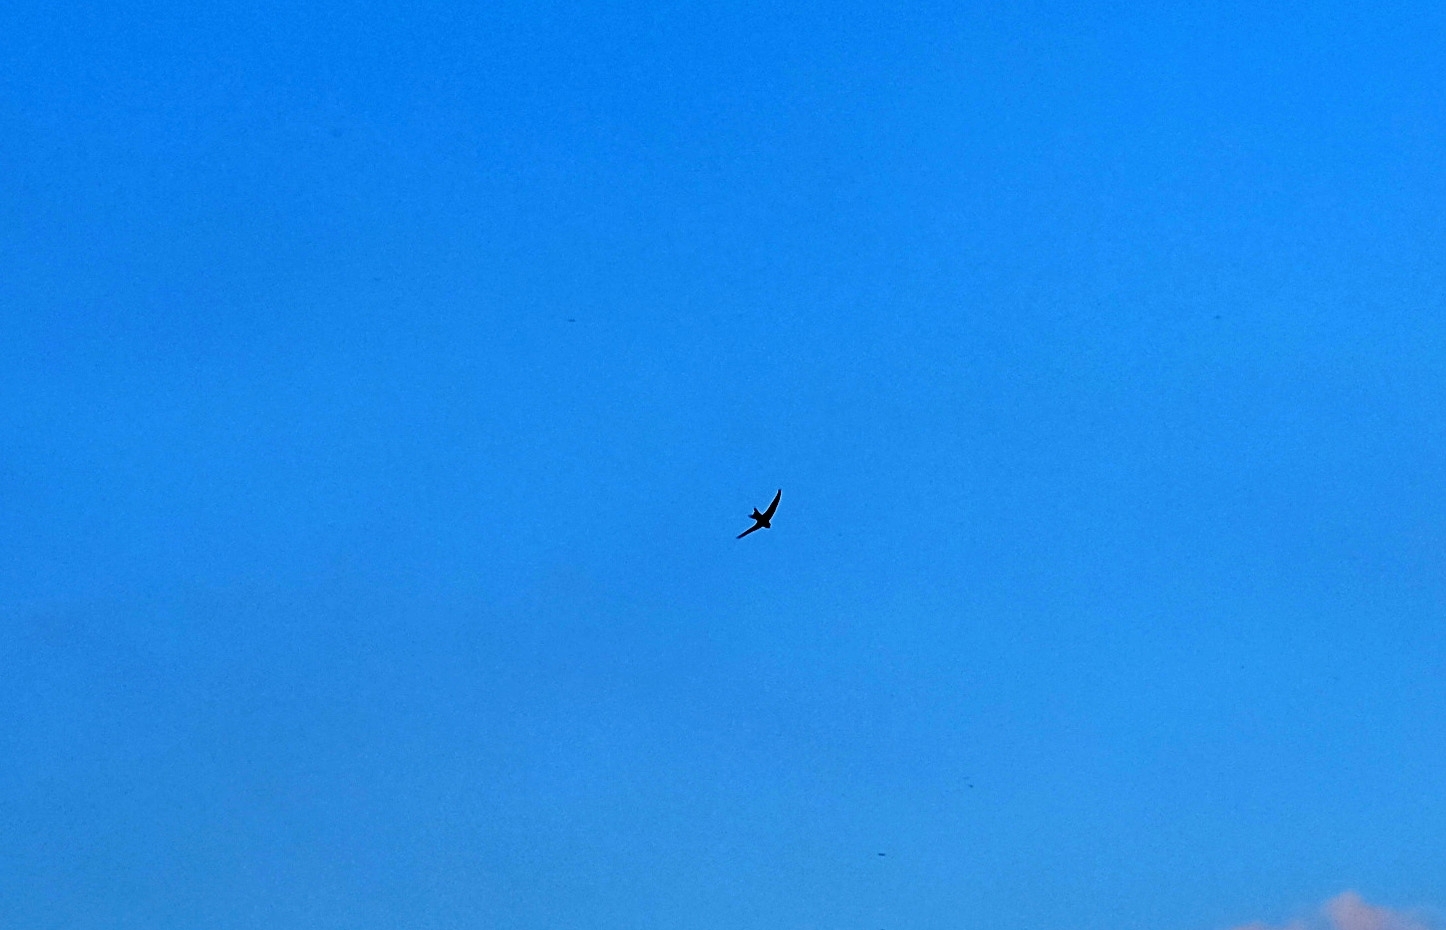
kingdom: Animalia
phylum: Chordata
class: Aves
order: Apodiformes
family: Apodidae
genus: Apus
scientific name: Apus apus
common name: Common swift
